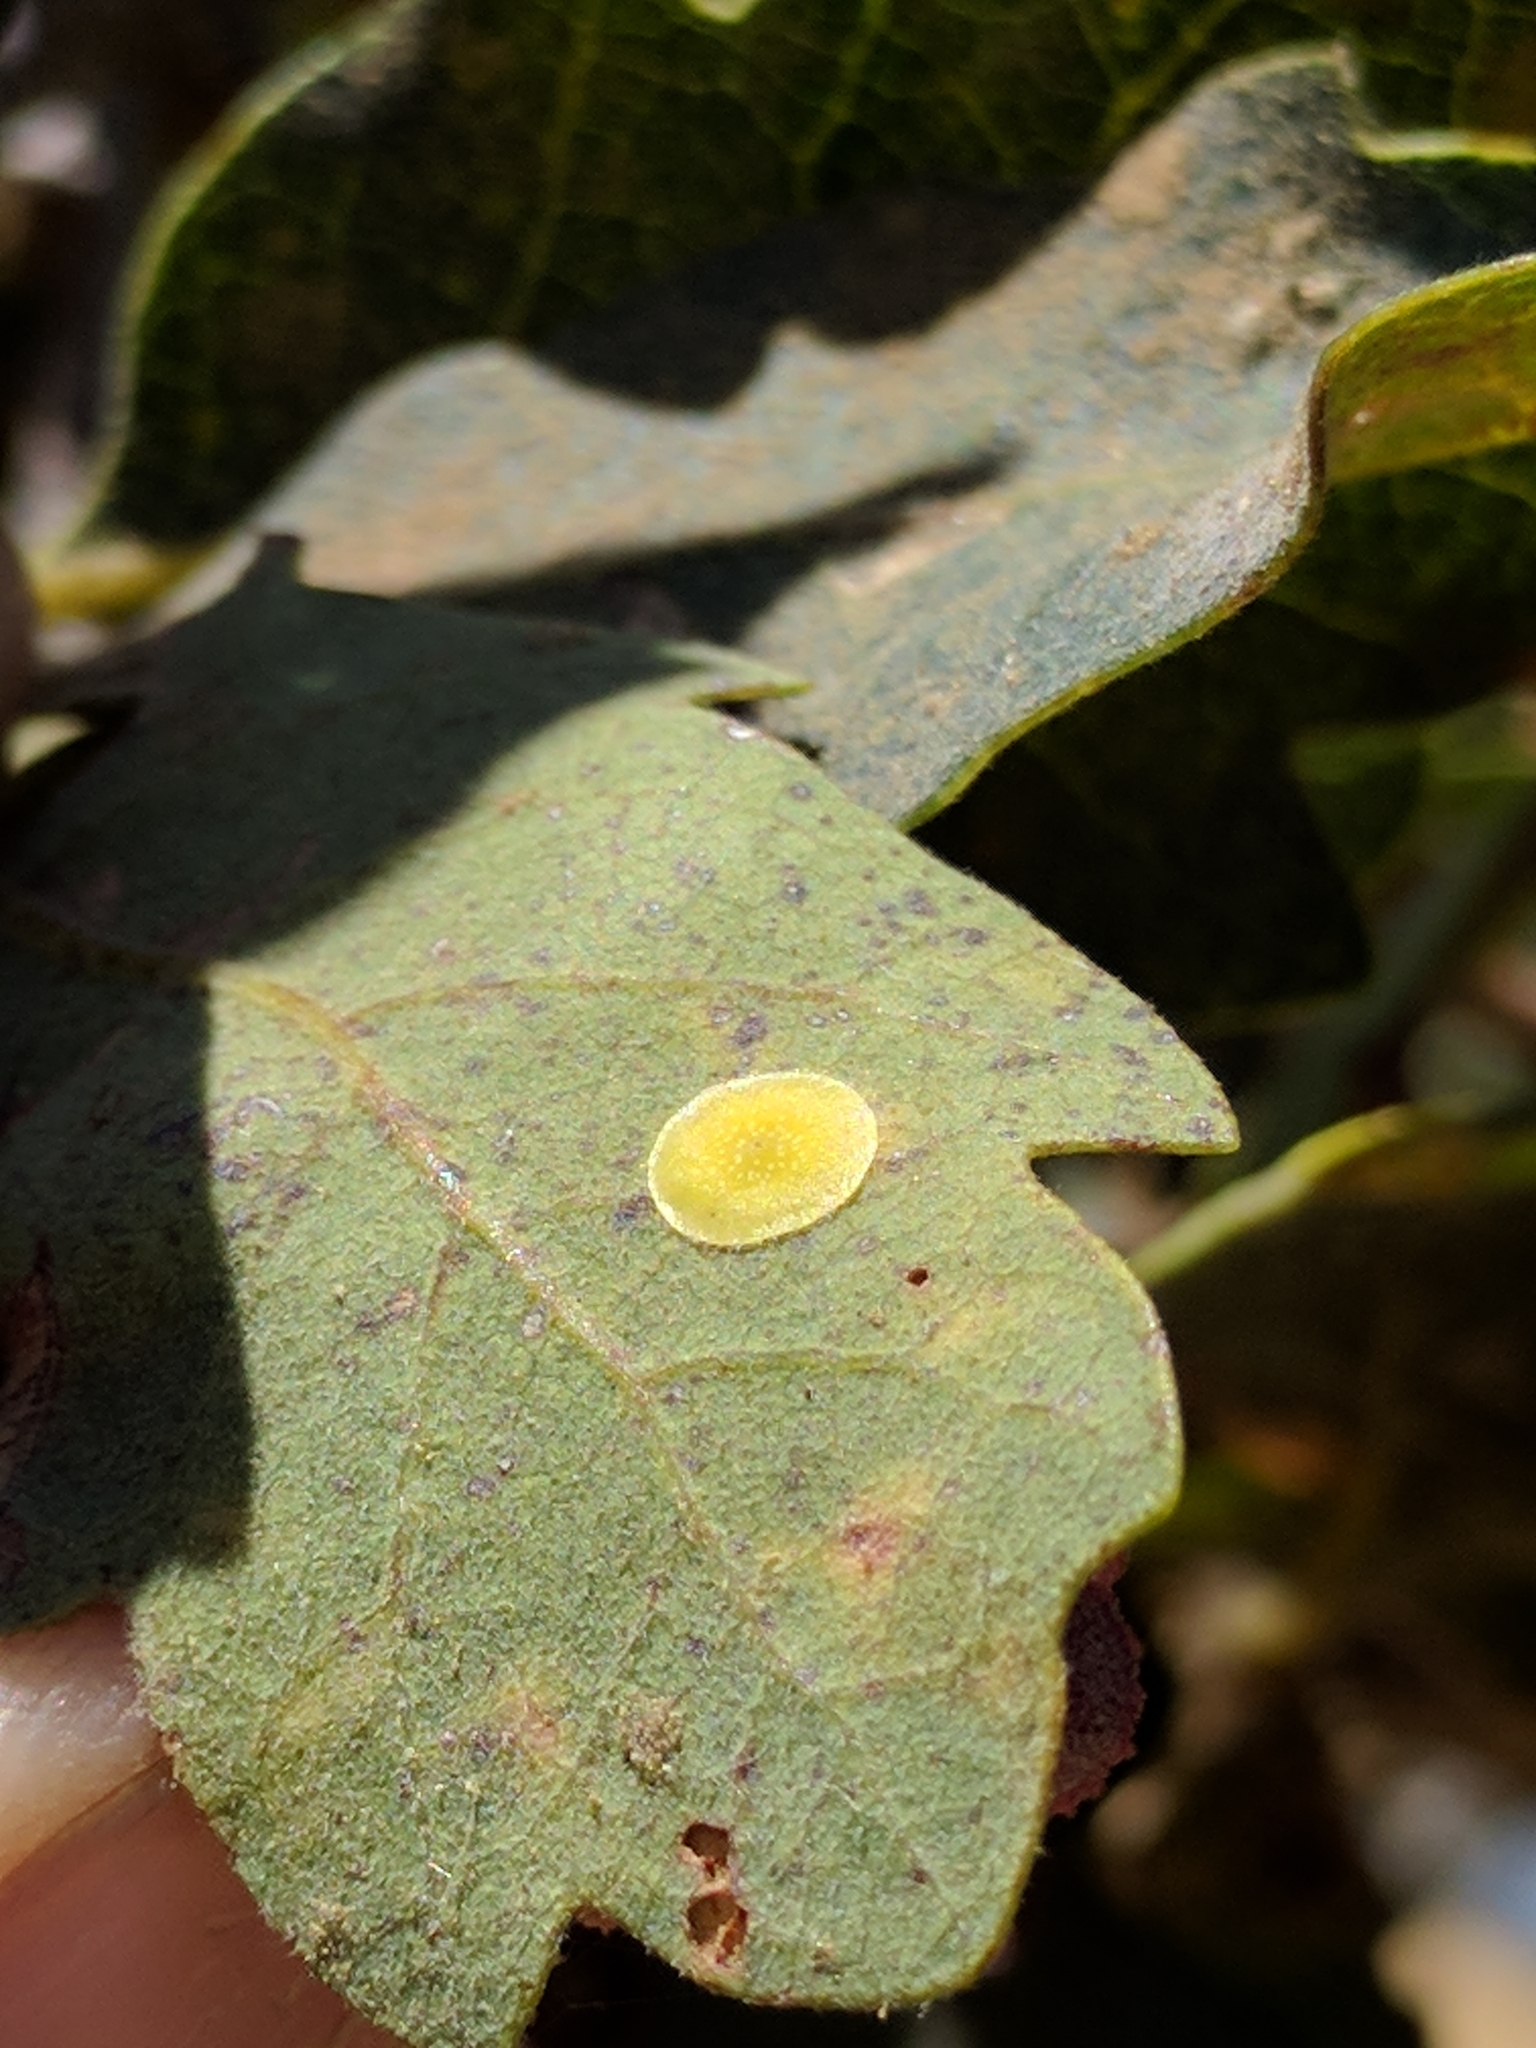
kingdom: Animalia
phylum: Arthropoda
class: Insecta
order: Hymenoptera
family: Cynipidae
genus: Andricus
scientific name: Andricus
